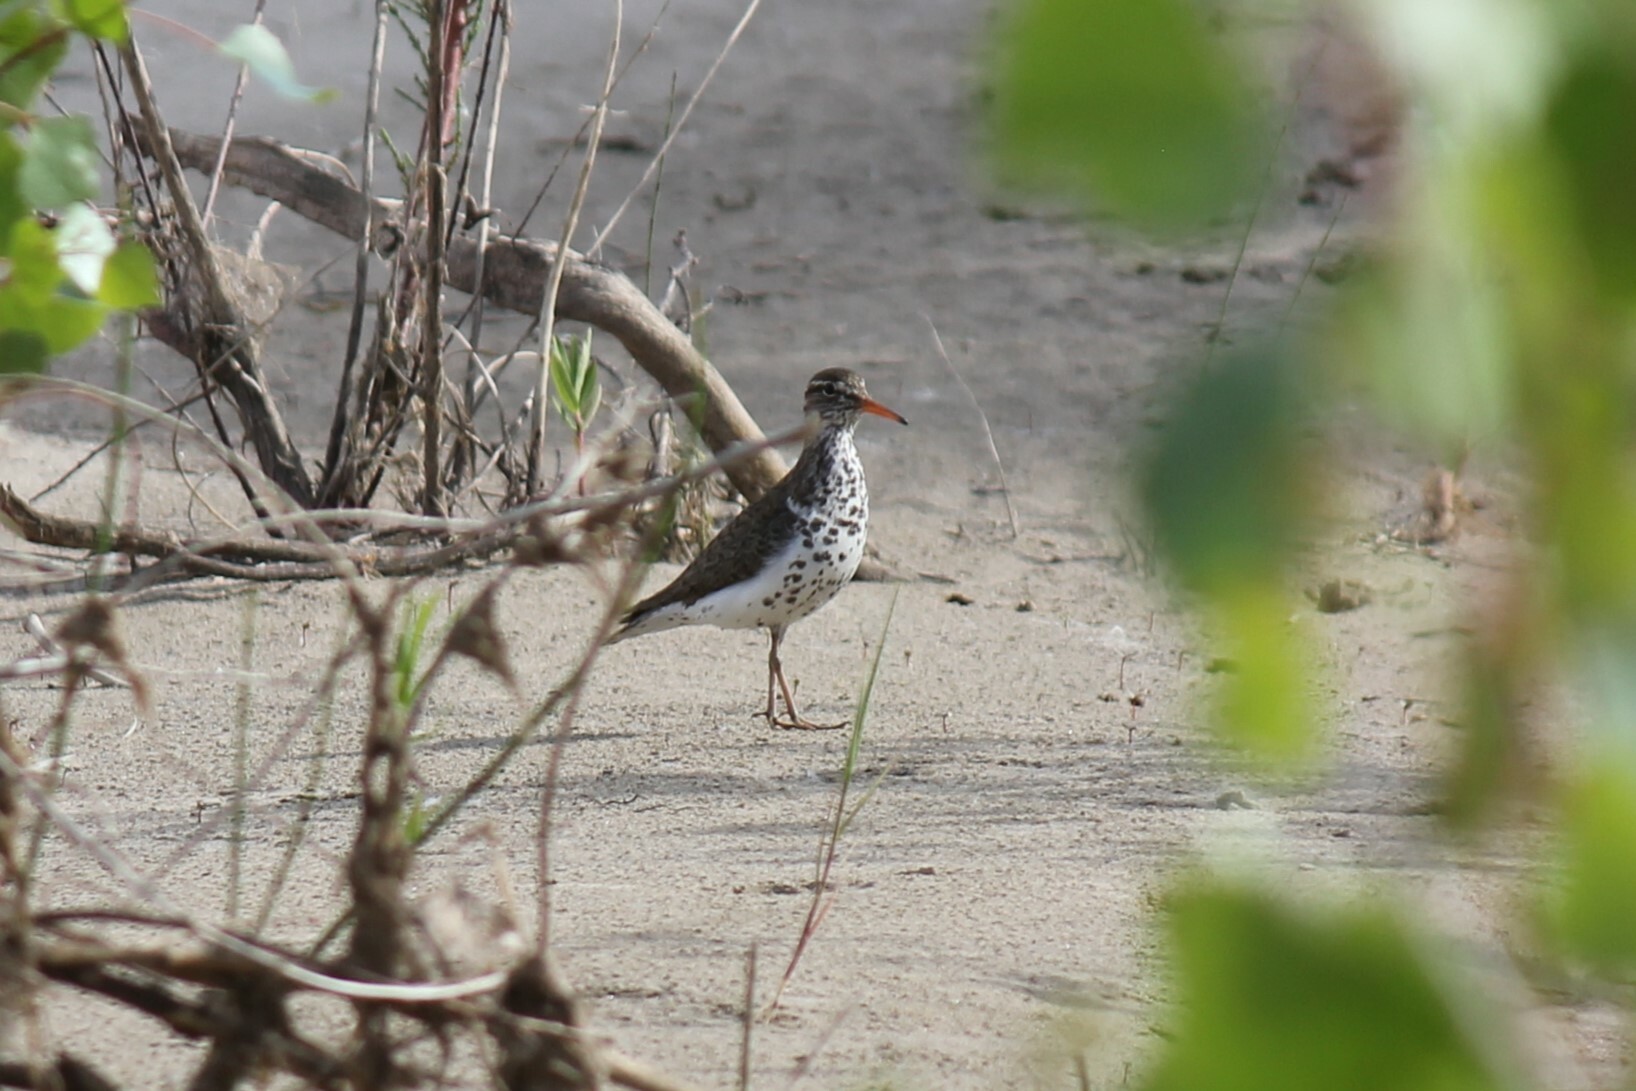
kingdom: Animalia
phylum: Chordata
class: Aves
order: Charadriiformes
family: Scolopacidae
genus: Actitis
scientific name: Actitis macularius
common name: Spotted sandpiper
